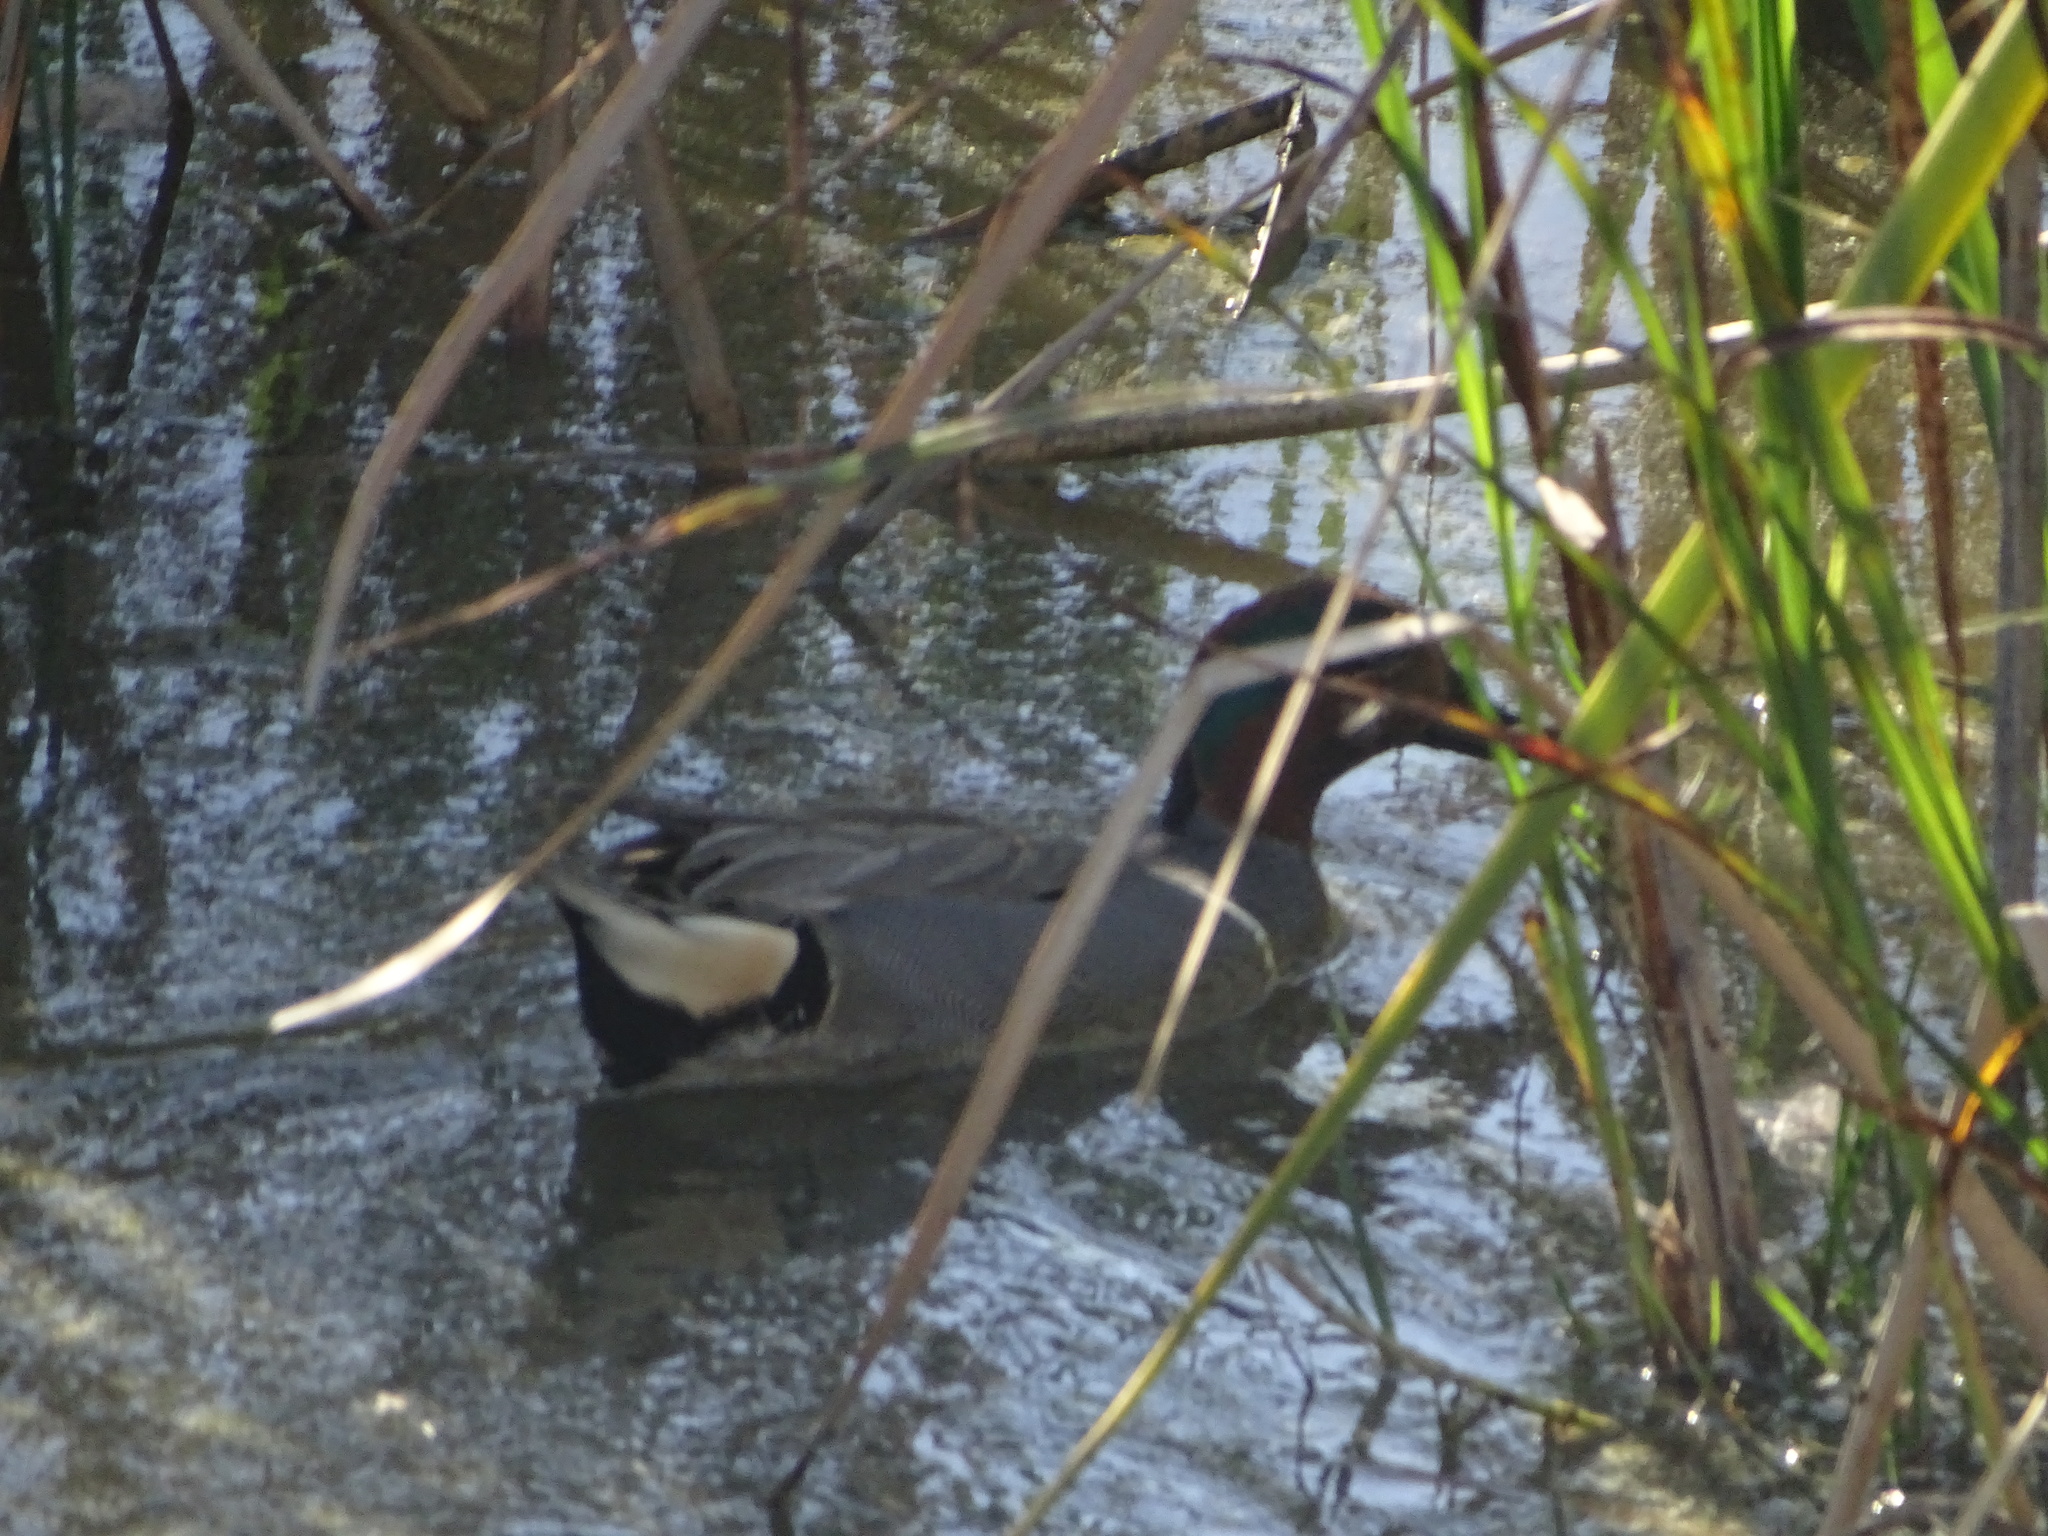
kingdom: Animalia
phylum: Chordata
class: Aves
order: Anseriformes
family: Anatidae
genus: Anas
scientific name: Anas carolinensis
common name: Green-winged teal
